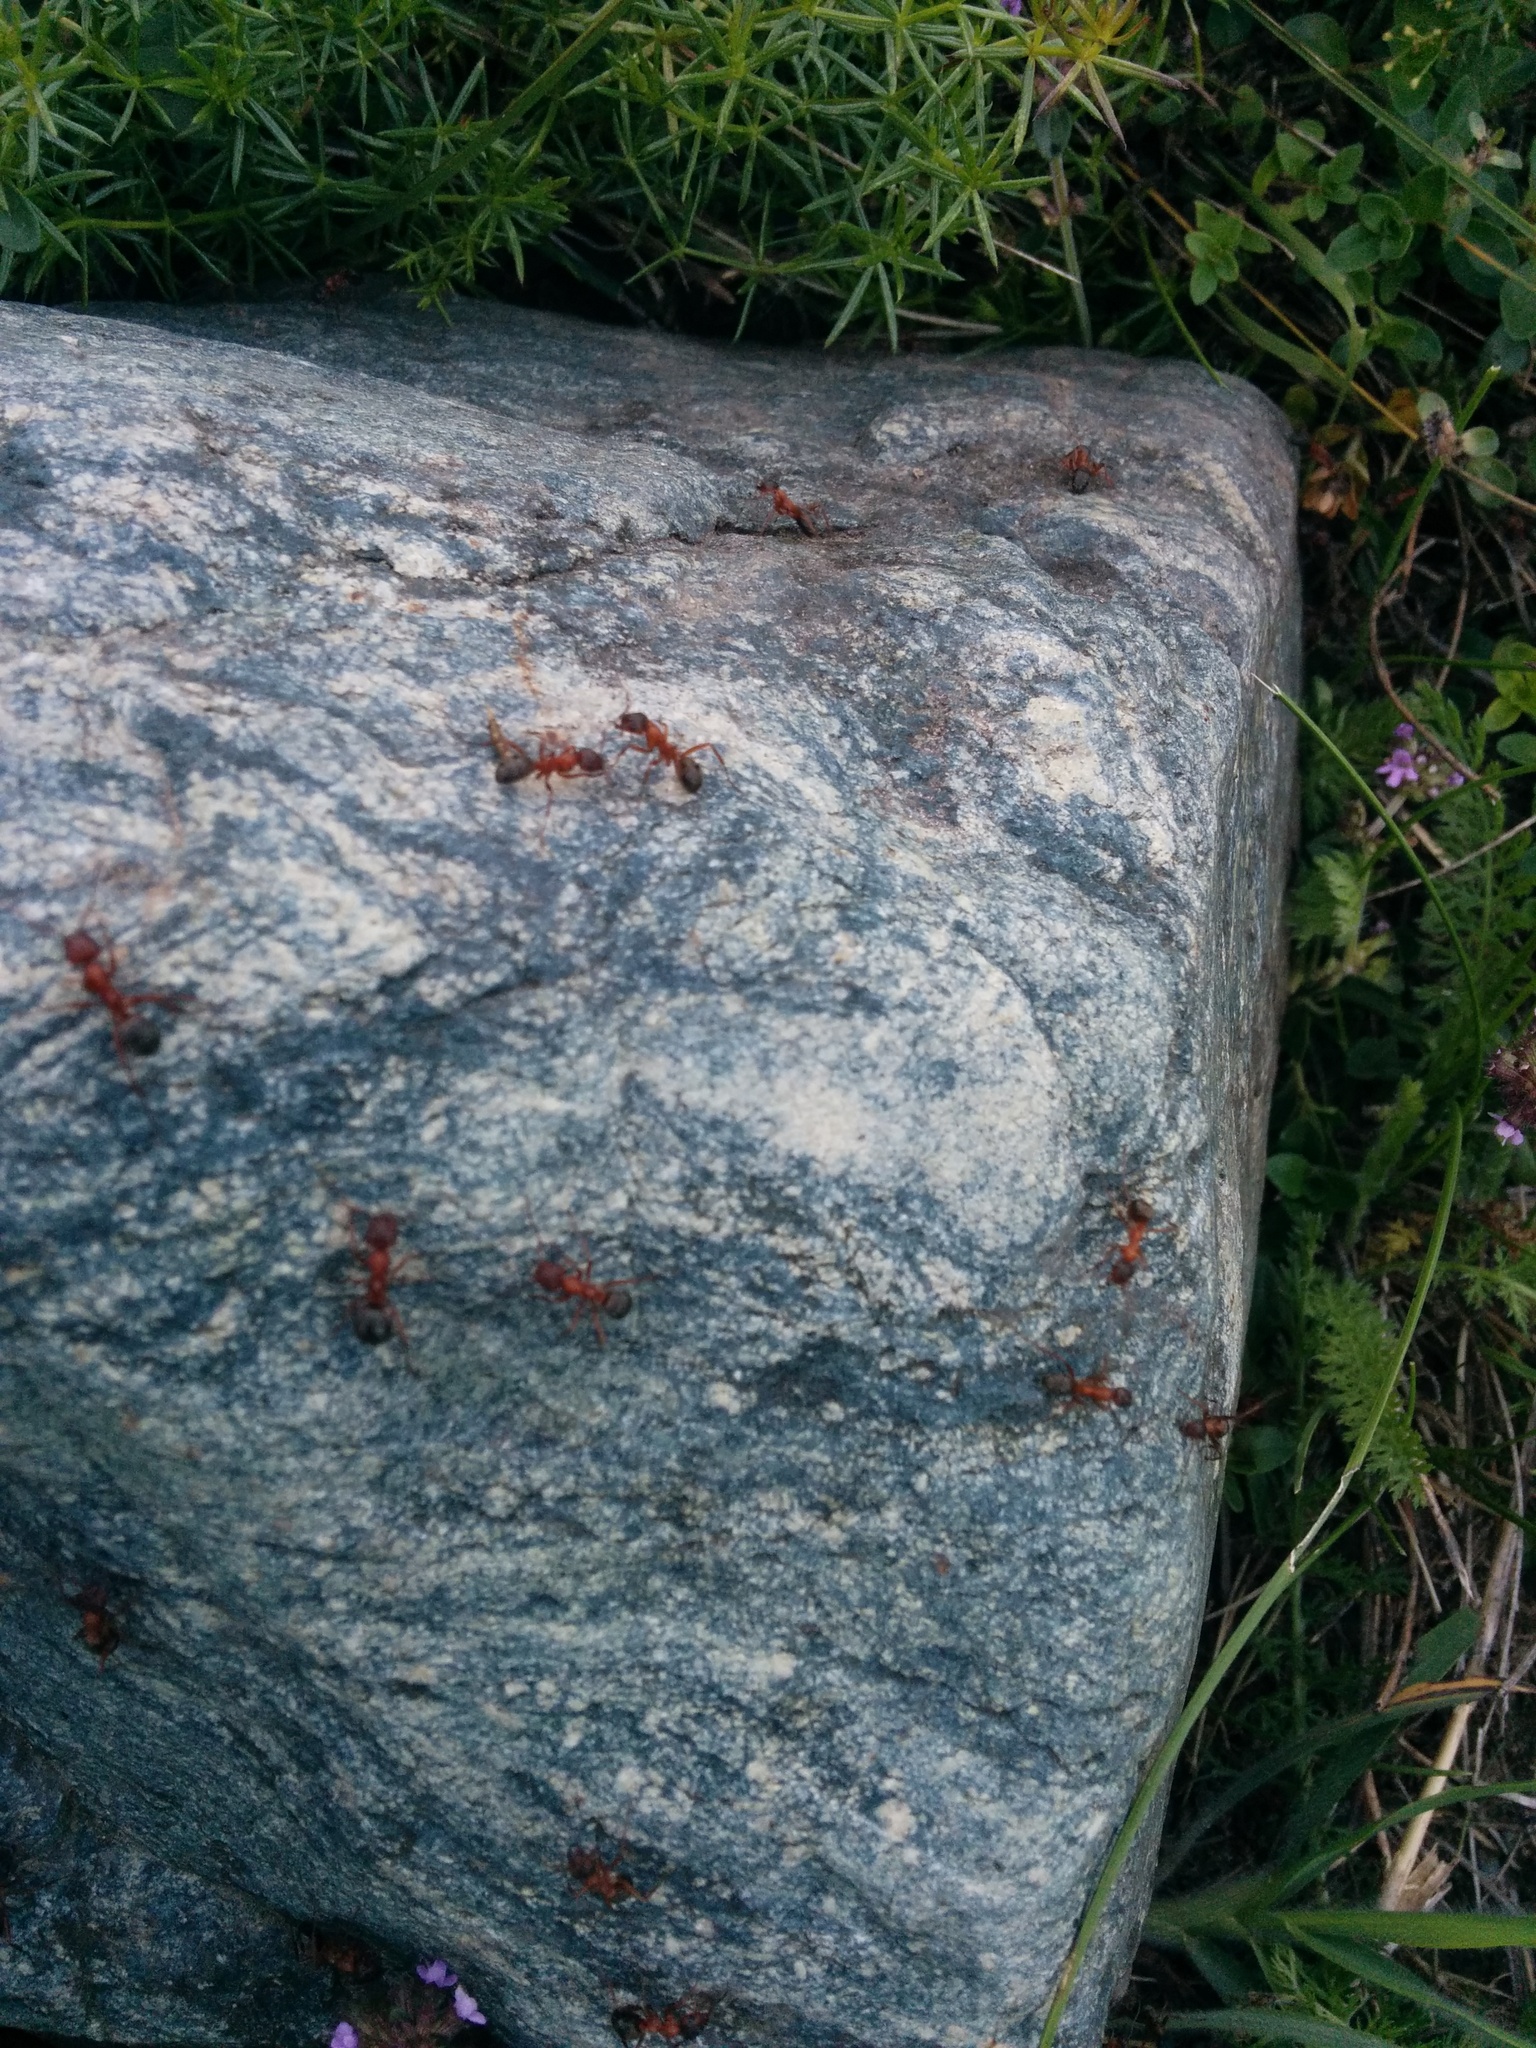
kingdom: Animalia
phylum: Arthropoda
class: Insecta
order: Hymenoptera
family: Formicidae
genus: Formica
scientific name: Formica sanguinea
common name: Blood-red ant
